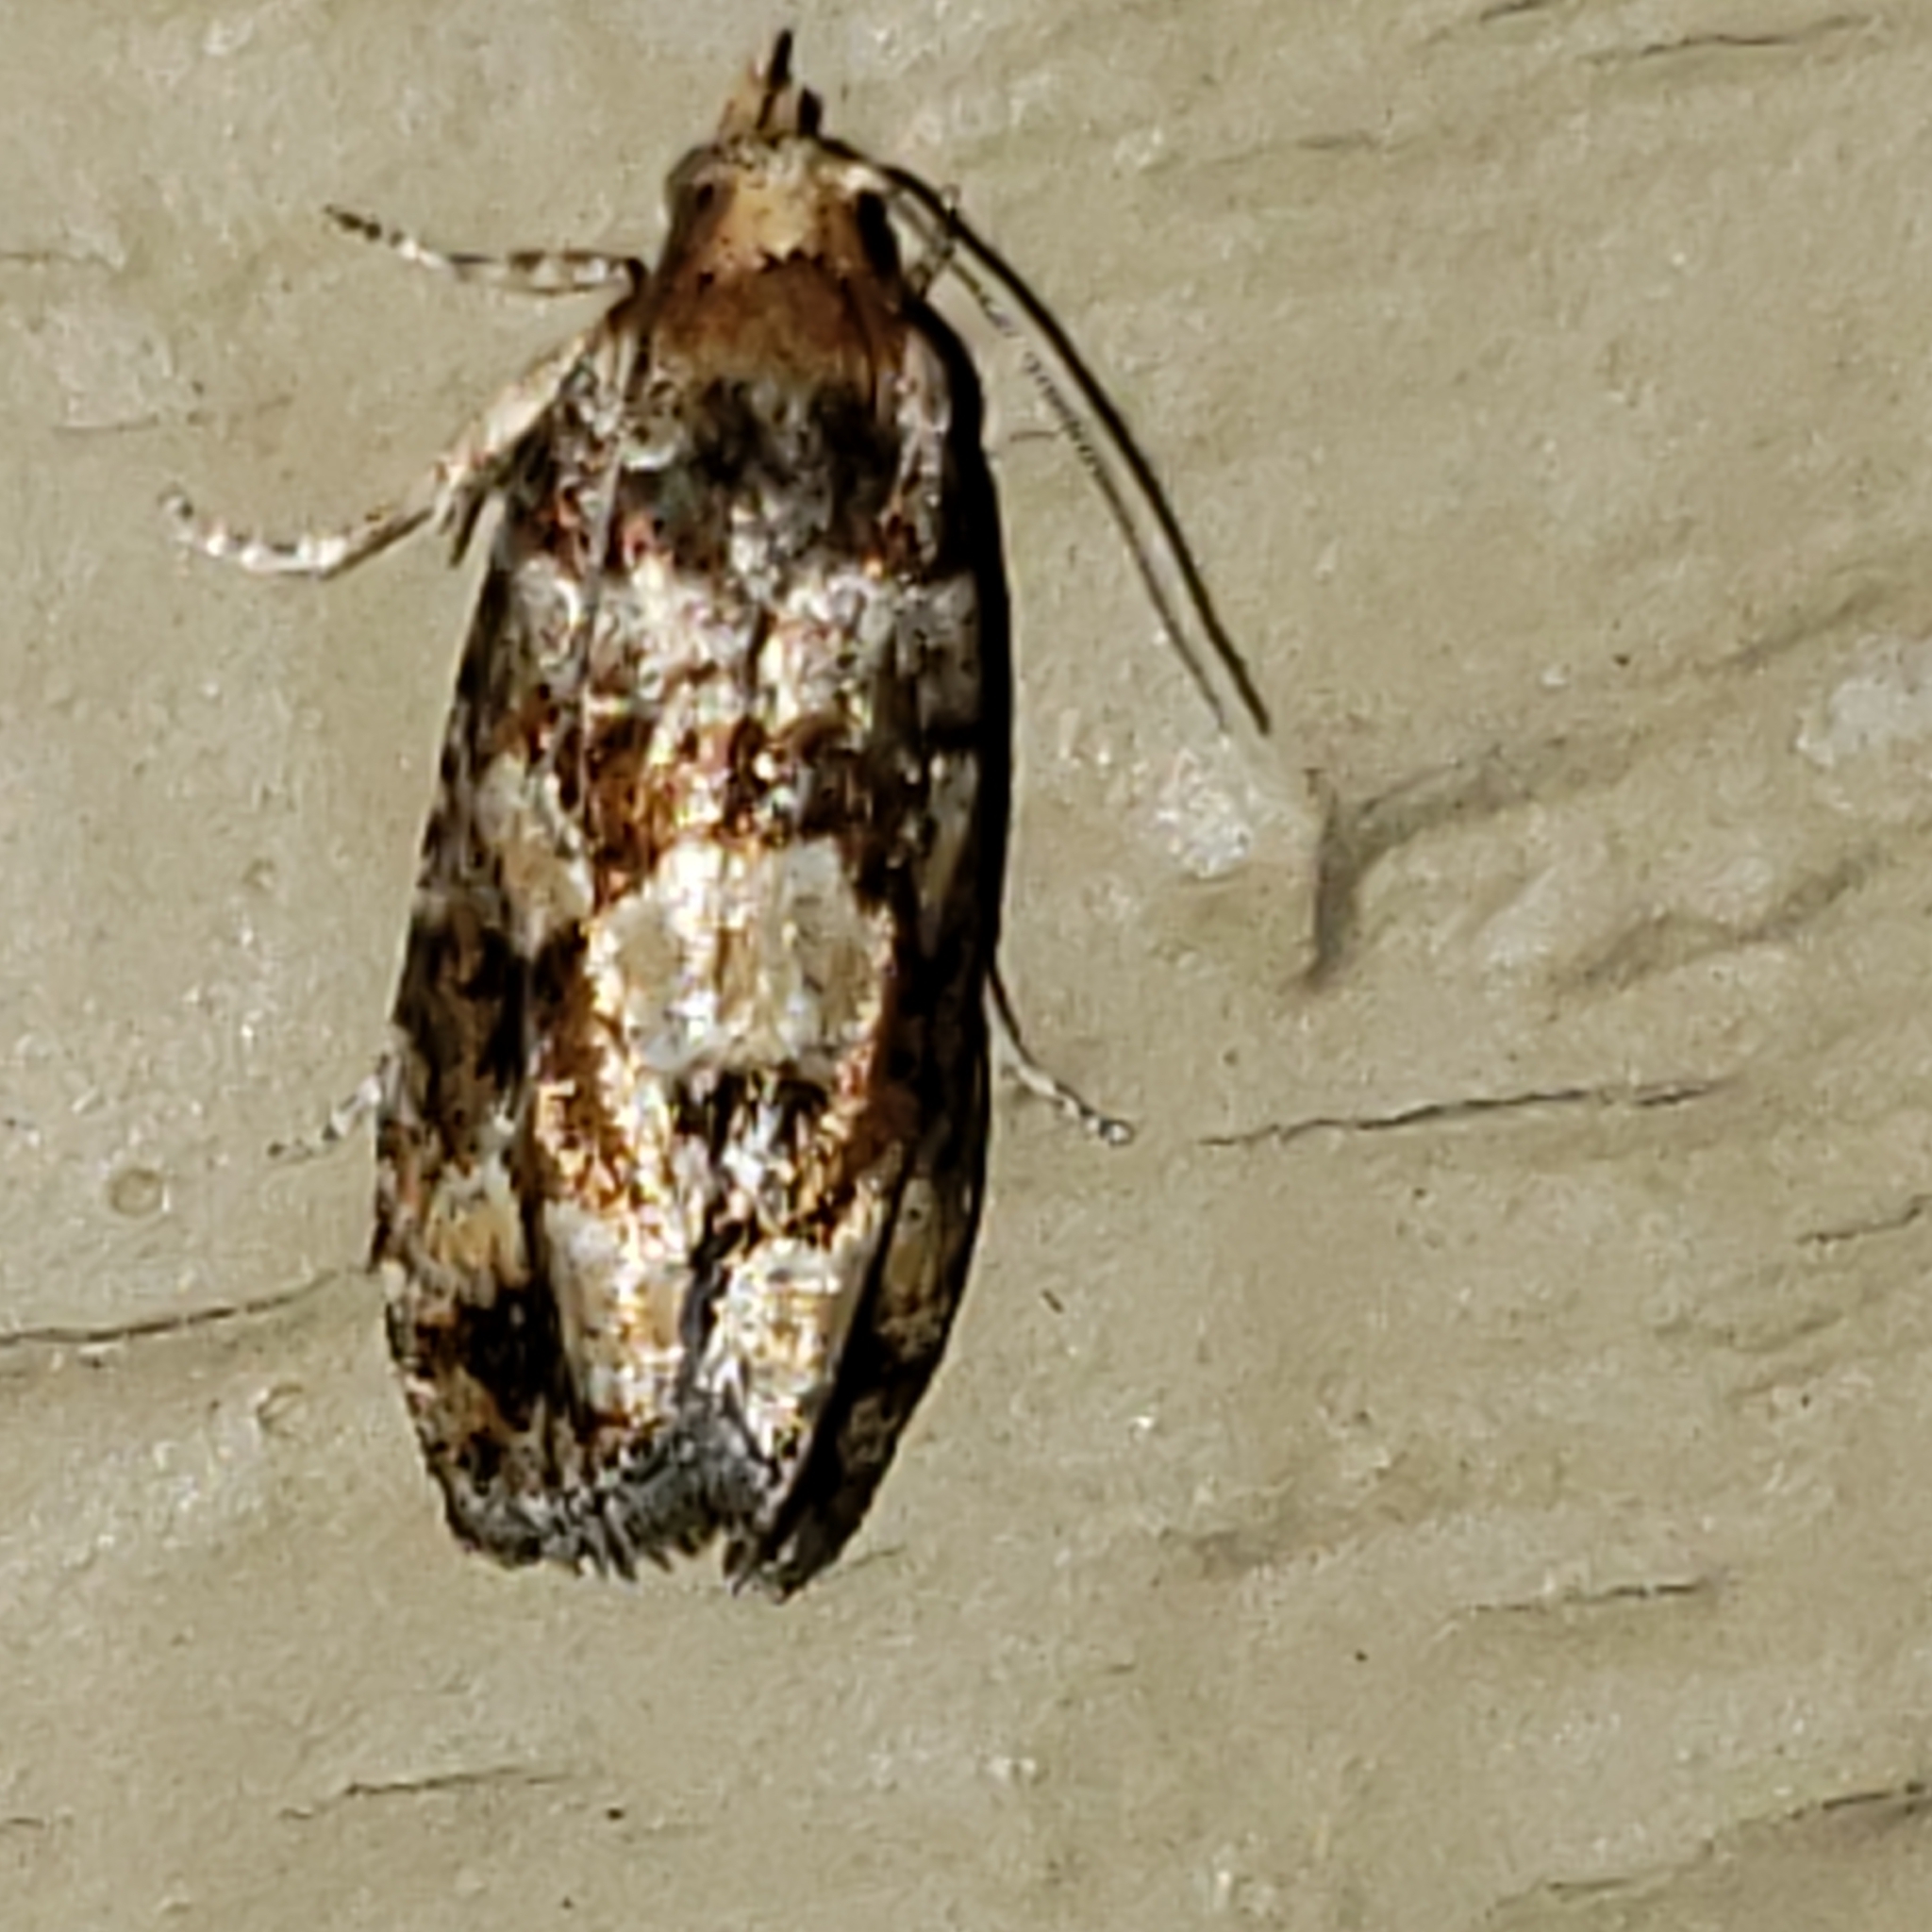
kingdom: Animalia
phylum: Arthropoda
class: Insecta
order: Lepidoptera
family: Tortricidae
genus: Eucopina
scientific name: Eucopina tocullionana
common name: White pinecone borer moth
